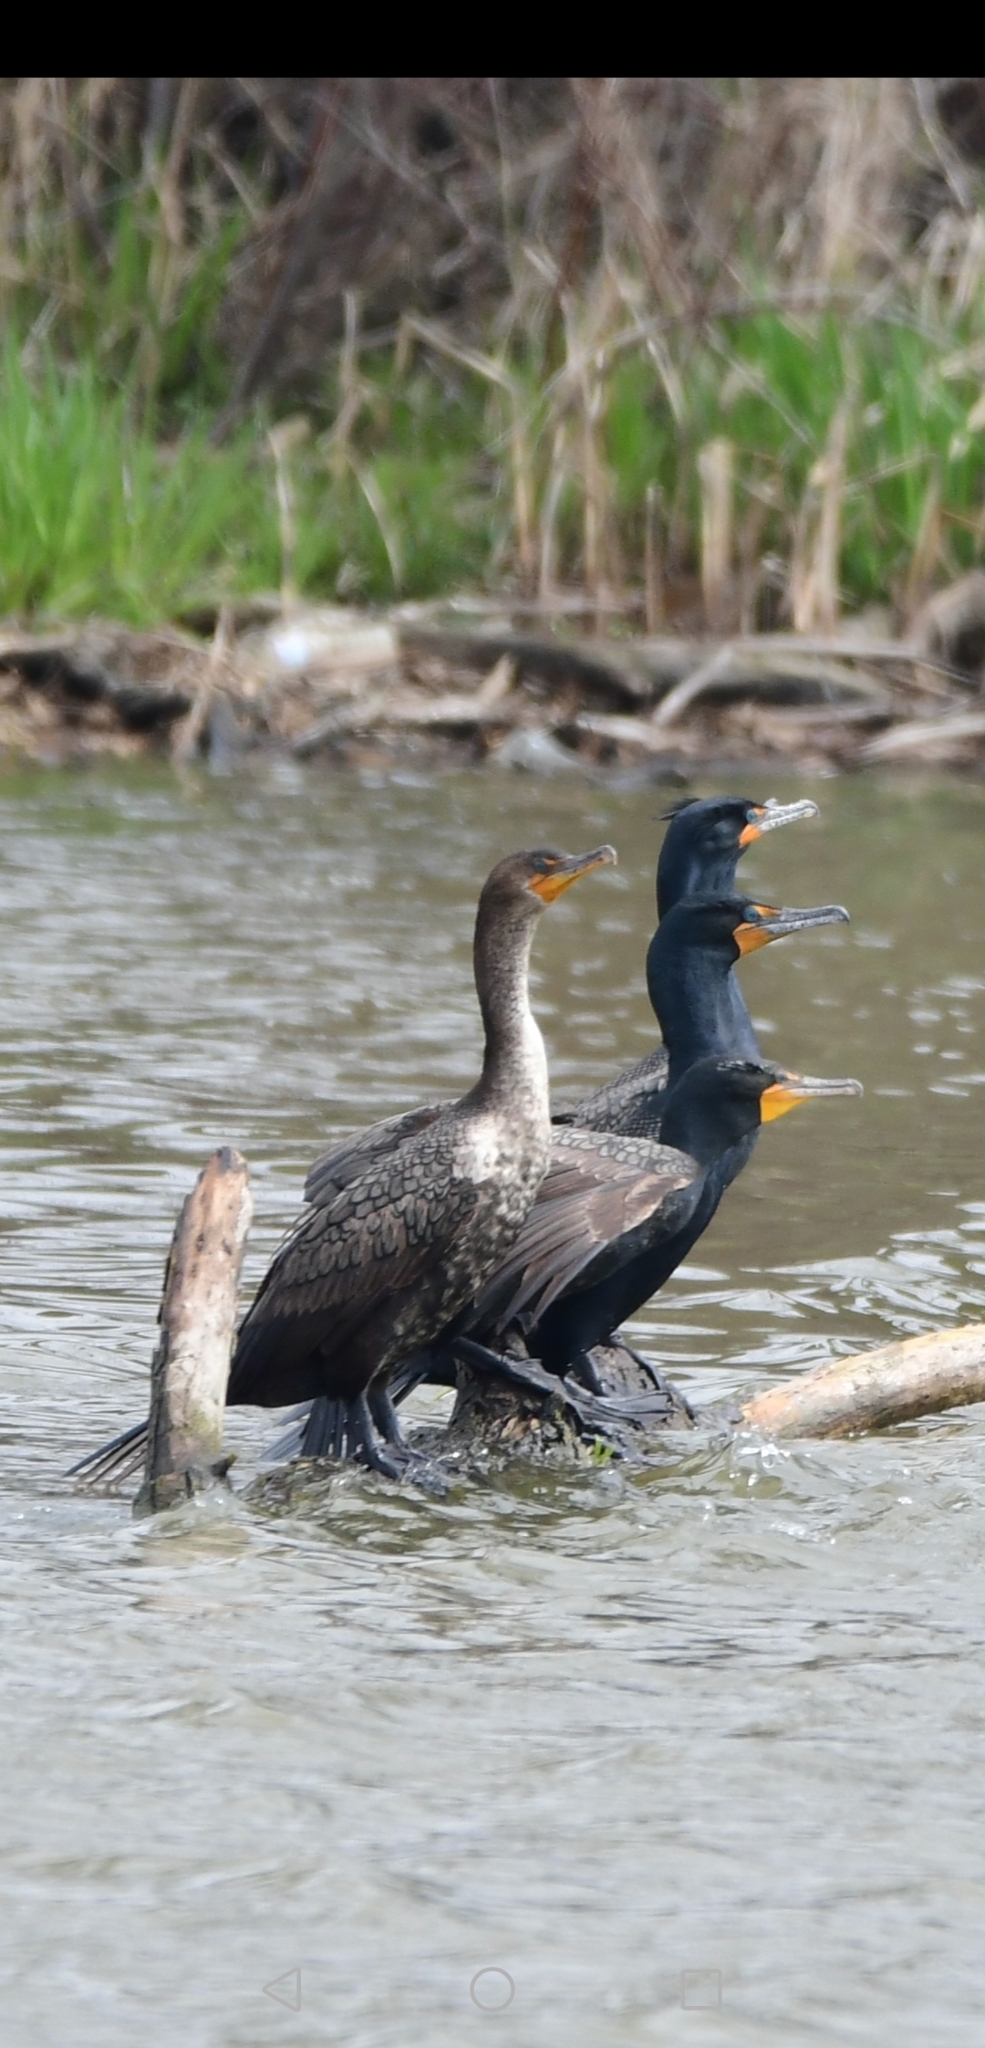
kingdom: Animalia
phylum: Chordata
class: Aves
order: Suliformes
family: Phalacrocoracidae
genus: Phalacrocorax
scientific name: Phalacrocorax auritus
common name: Double-crested cormorant
